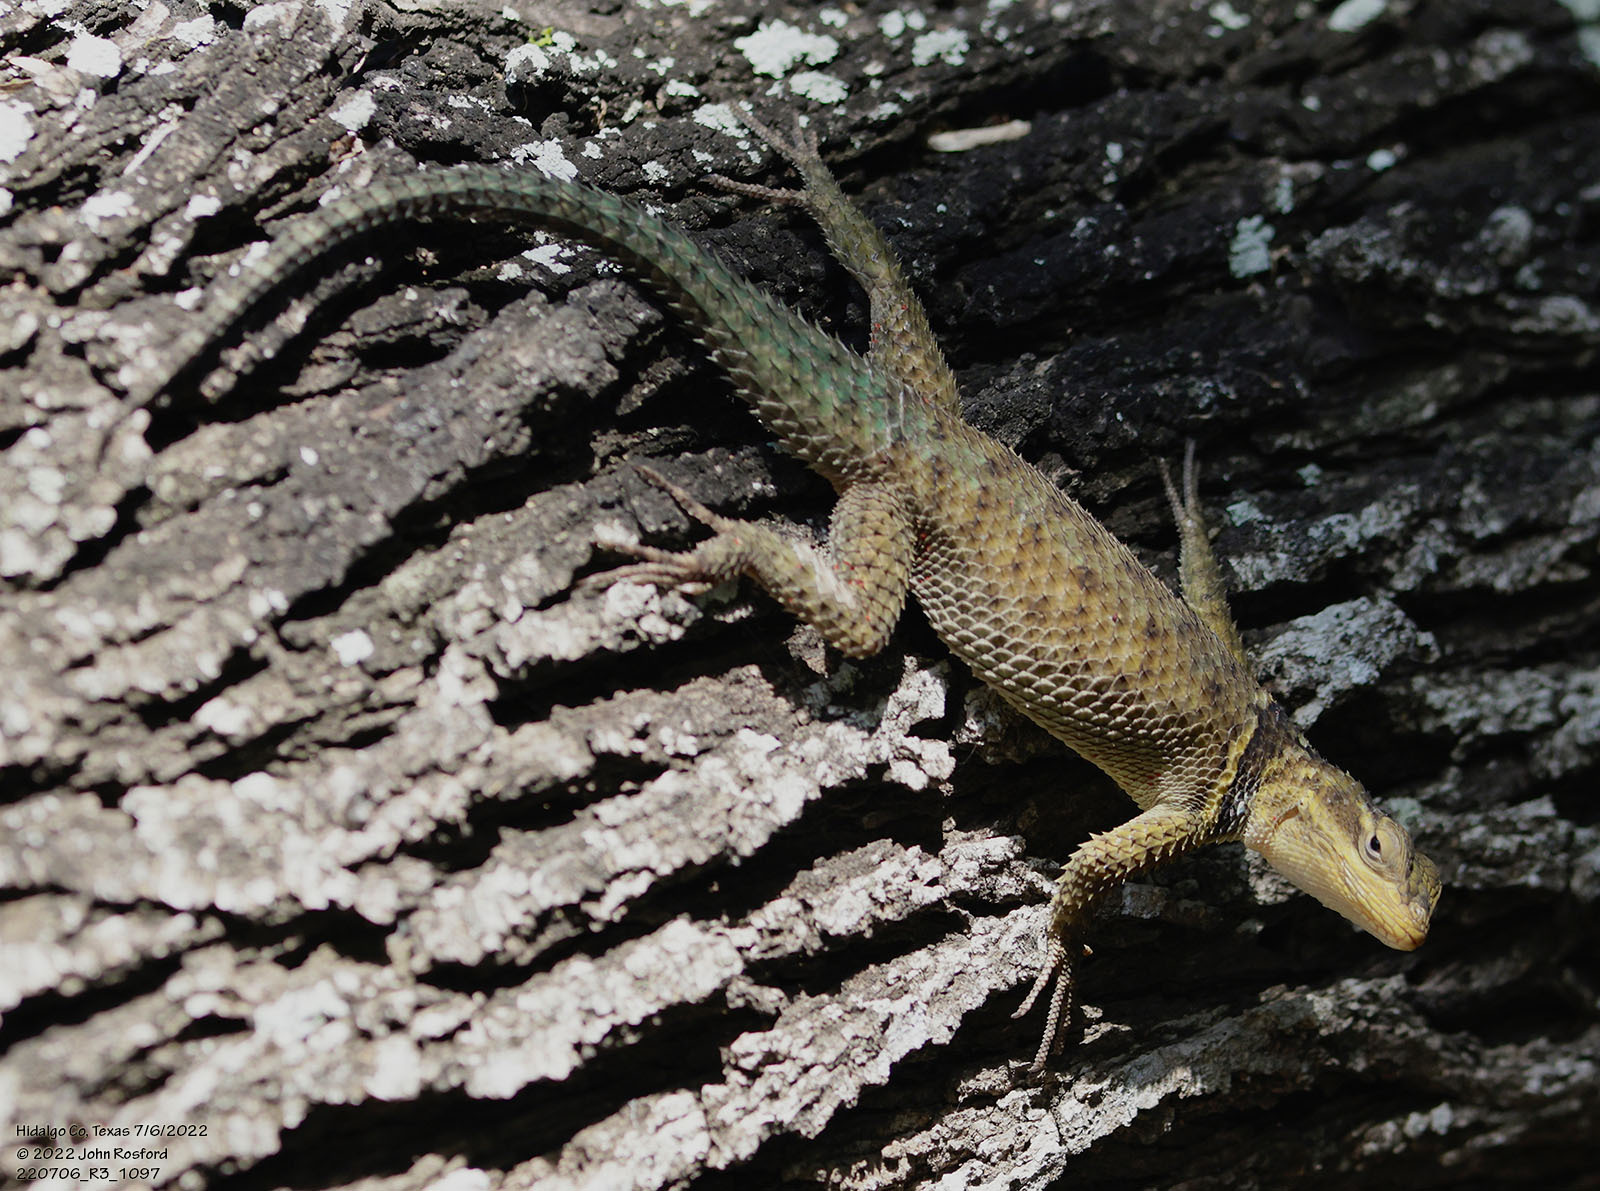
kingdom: Animalia
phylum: Chordata
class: Squamata
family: Phrynosomatidae
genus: Sceloporus
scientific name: Sceloporus cyanogenys
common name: Blue spiny lizard
